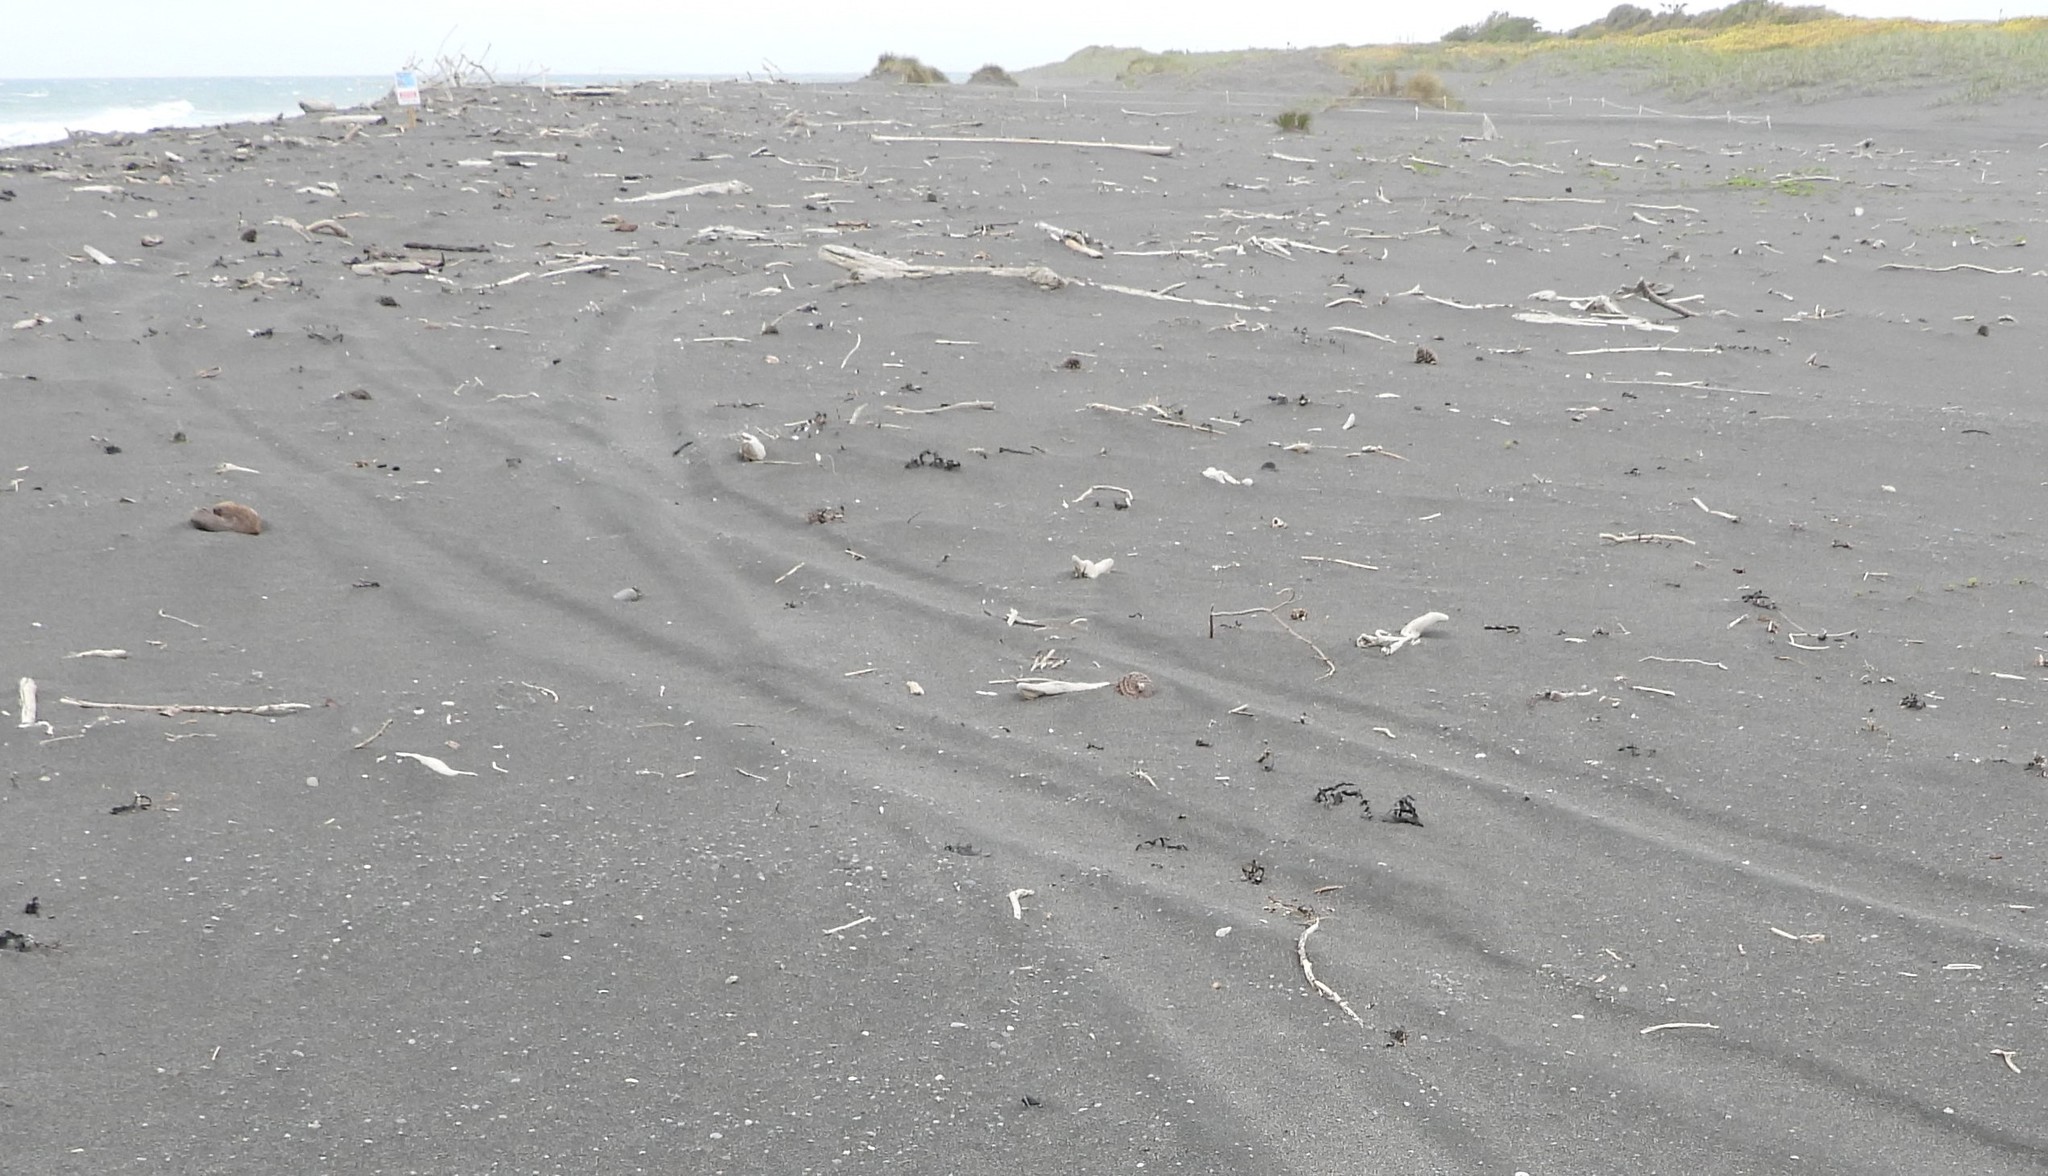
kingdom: Animalia
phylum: Chordata
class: Aves
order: Charadriiformes
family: Charadriidae
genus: Anarhynchus
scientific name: Anarhynchus
